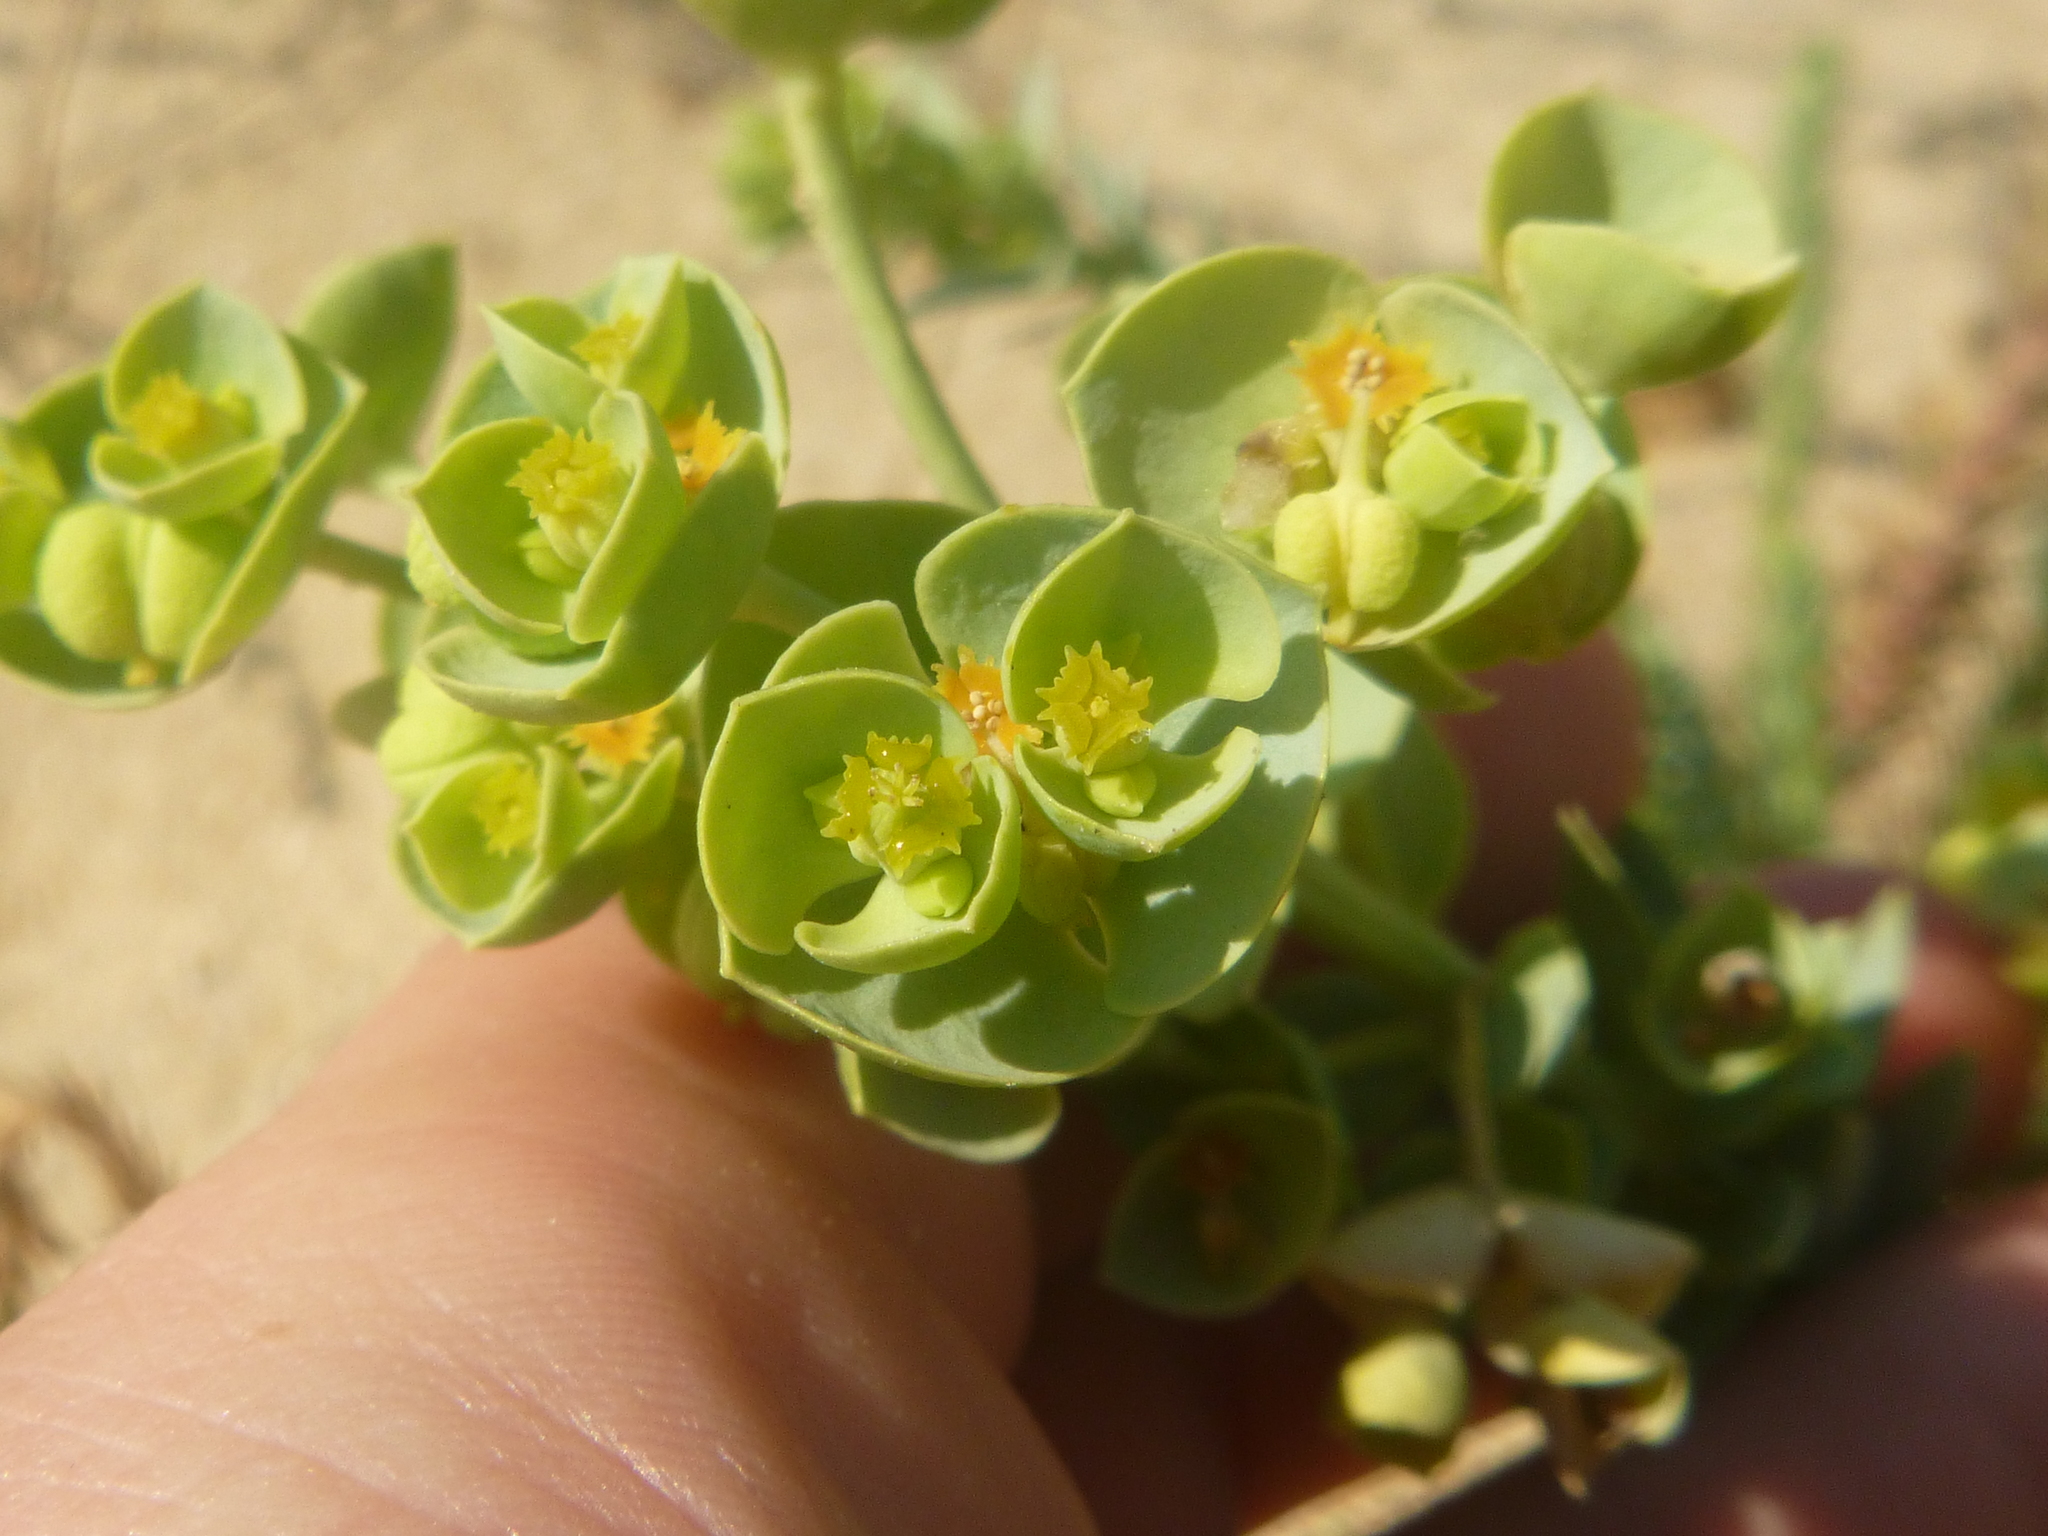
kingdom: Plantae
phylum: Tracheophyta
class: Magnoliopsida
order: Malpighiales
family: Euphorbiaceae
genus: Euphorbia
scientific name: Euphorbia paralias
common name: Sea spurge
